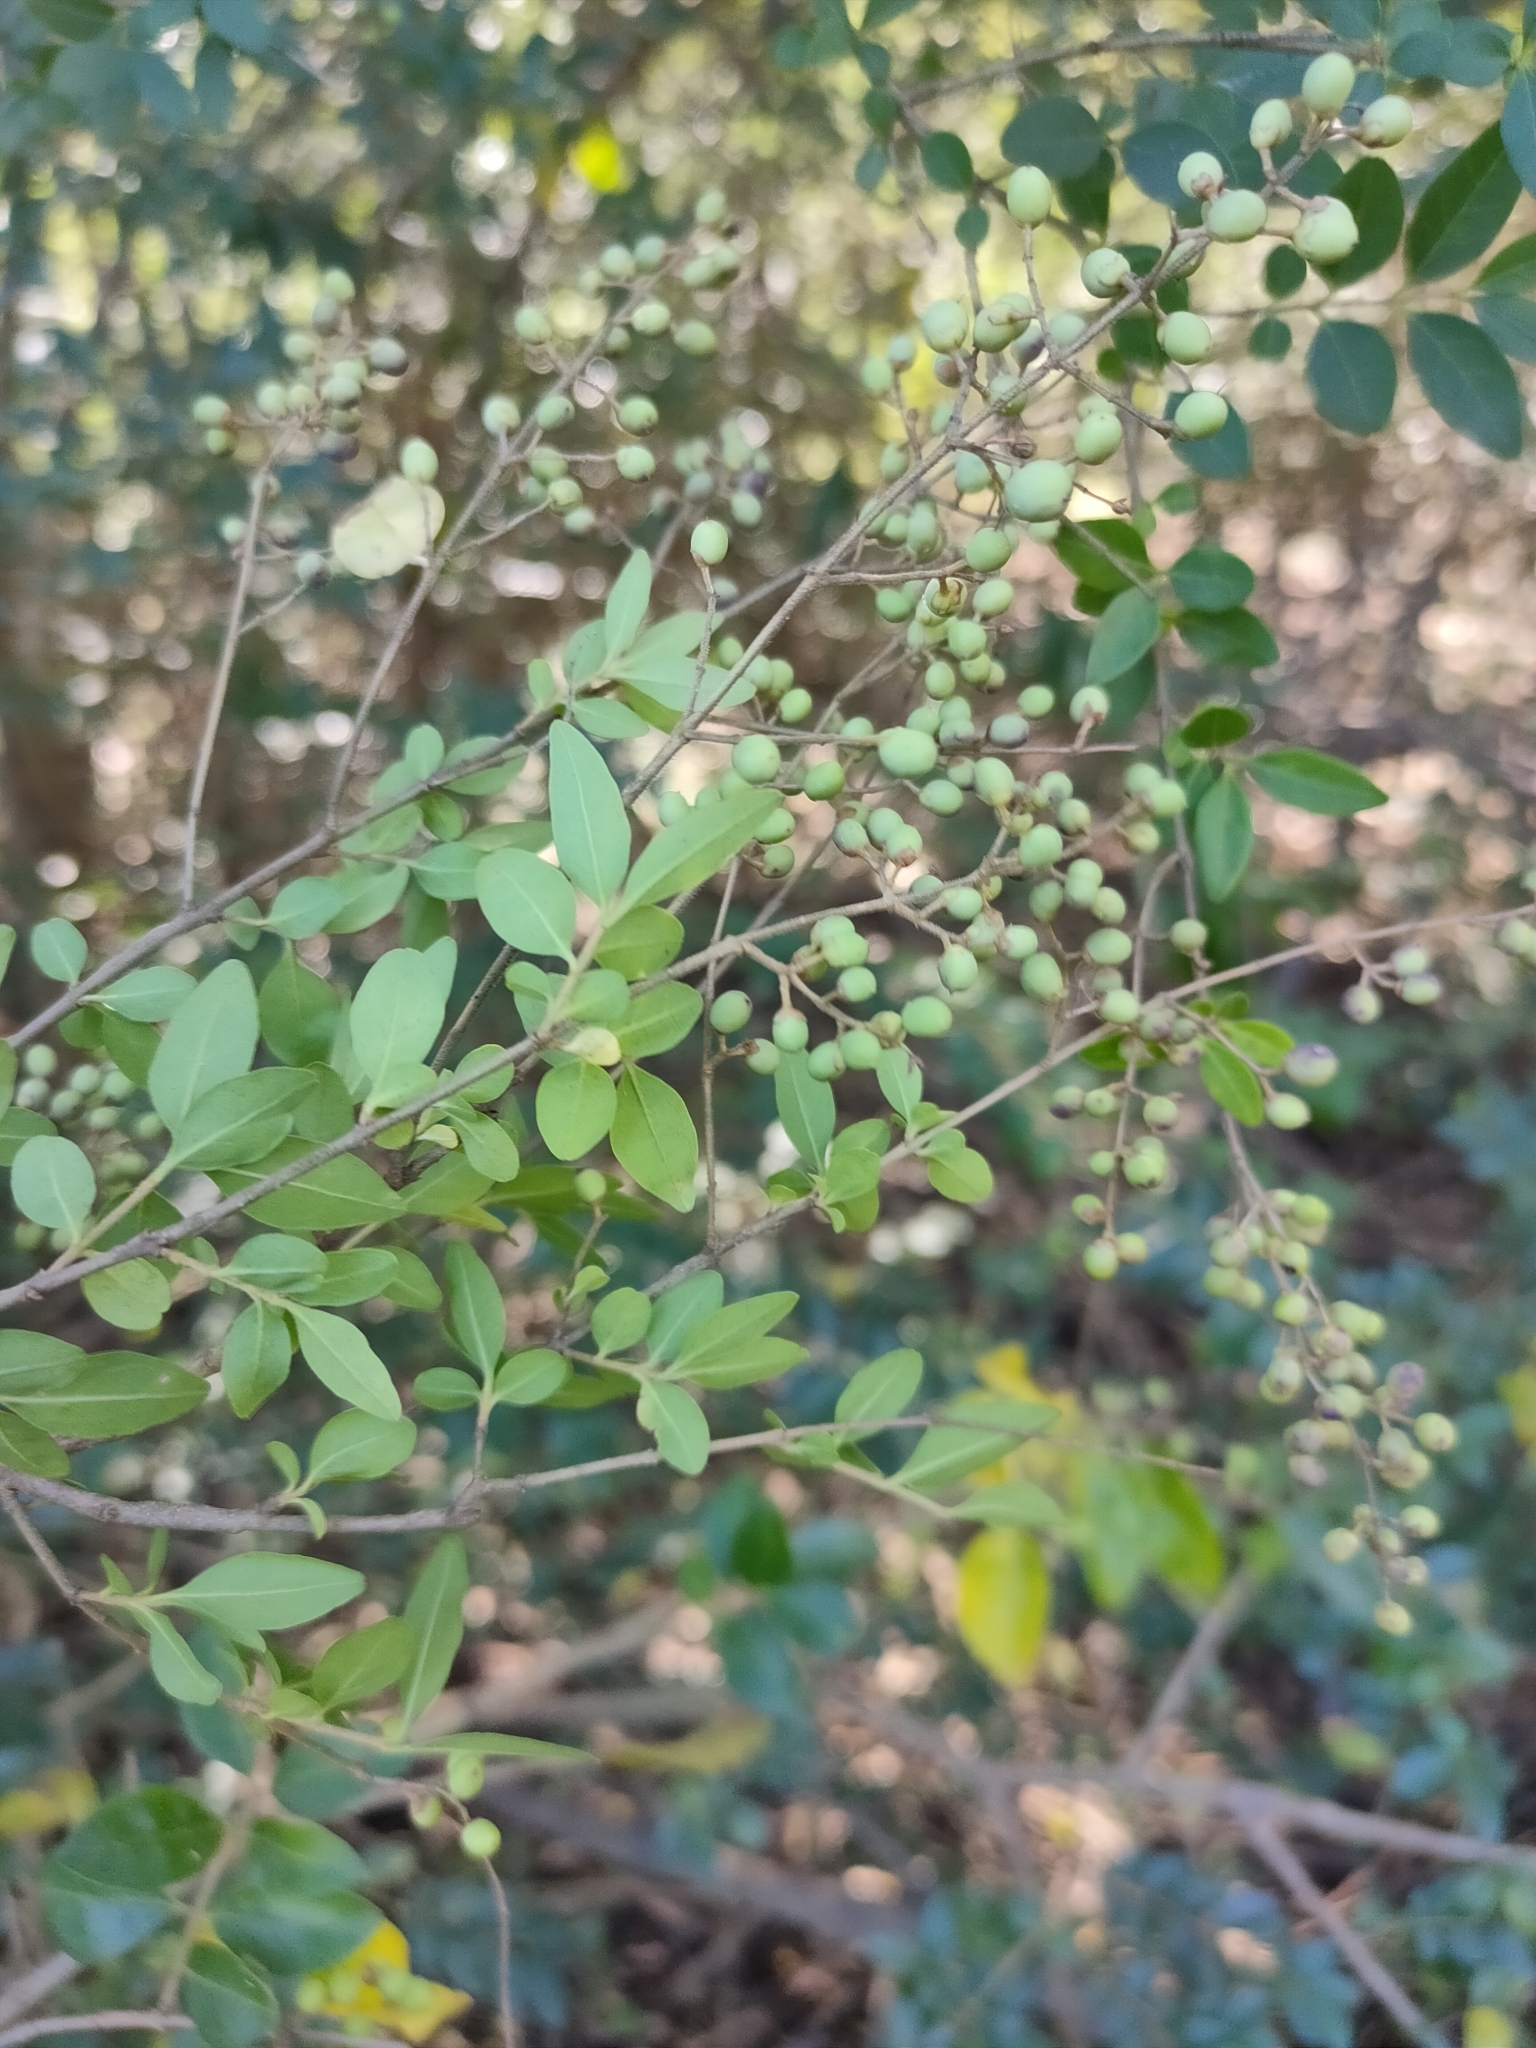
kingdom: Plantae
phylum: Tracheophyta
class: Magnoliopsida
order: Lamiales
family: Oleaceae
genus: Ligustrum
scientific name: Ligustrum sinense
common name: Chinese privet
